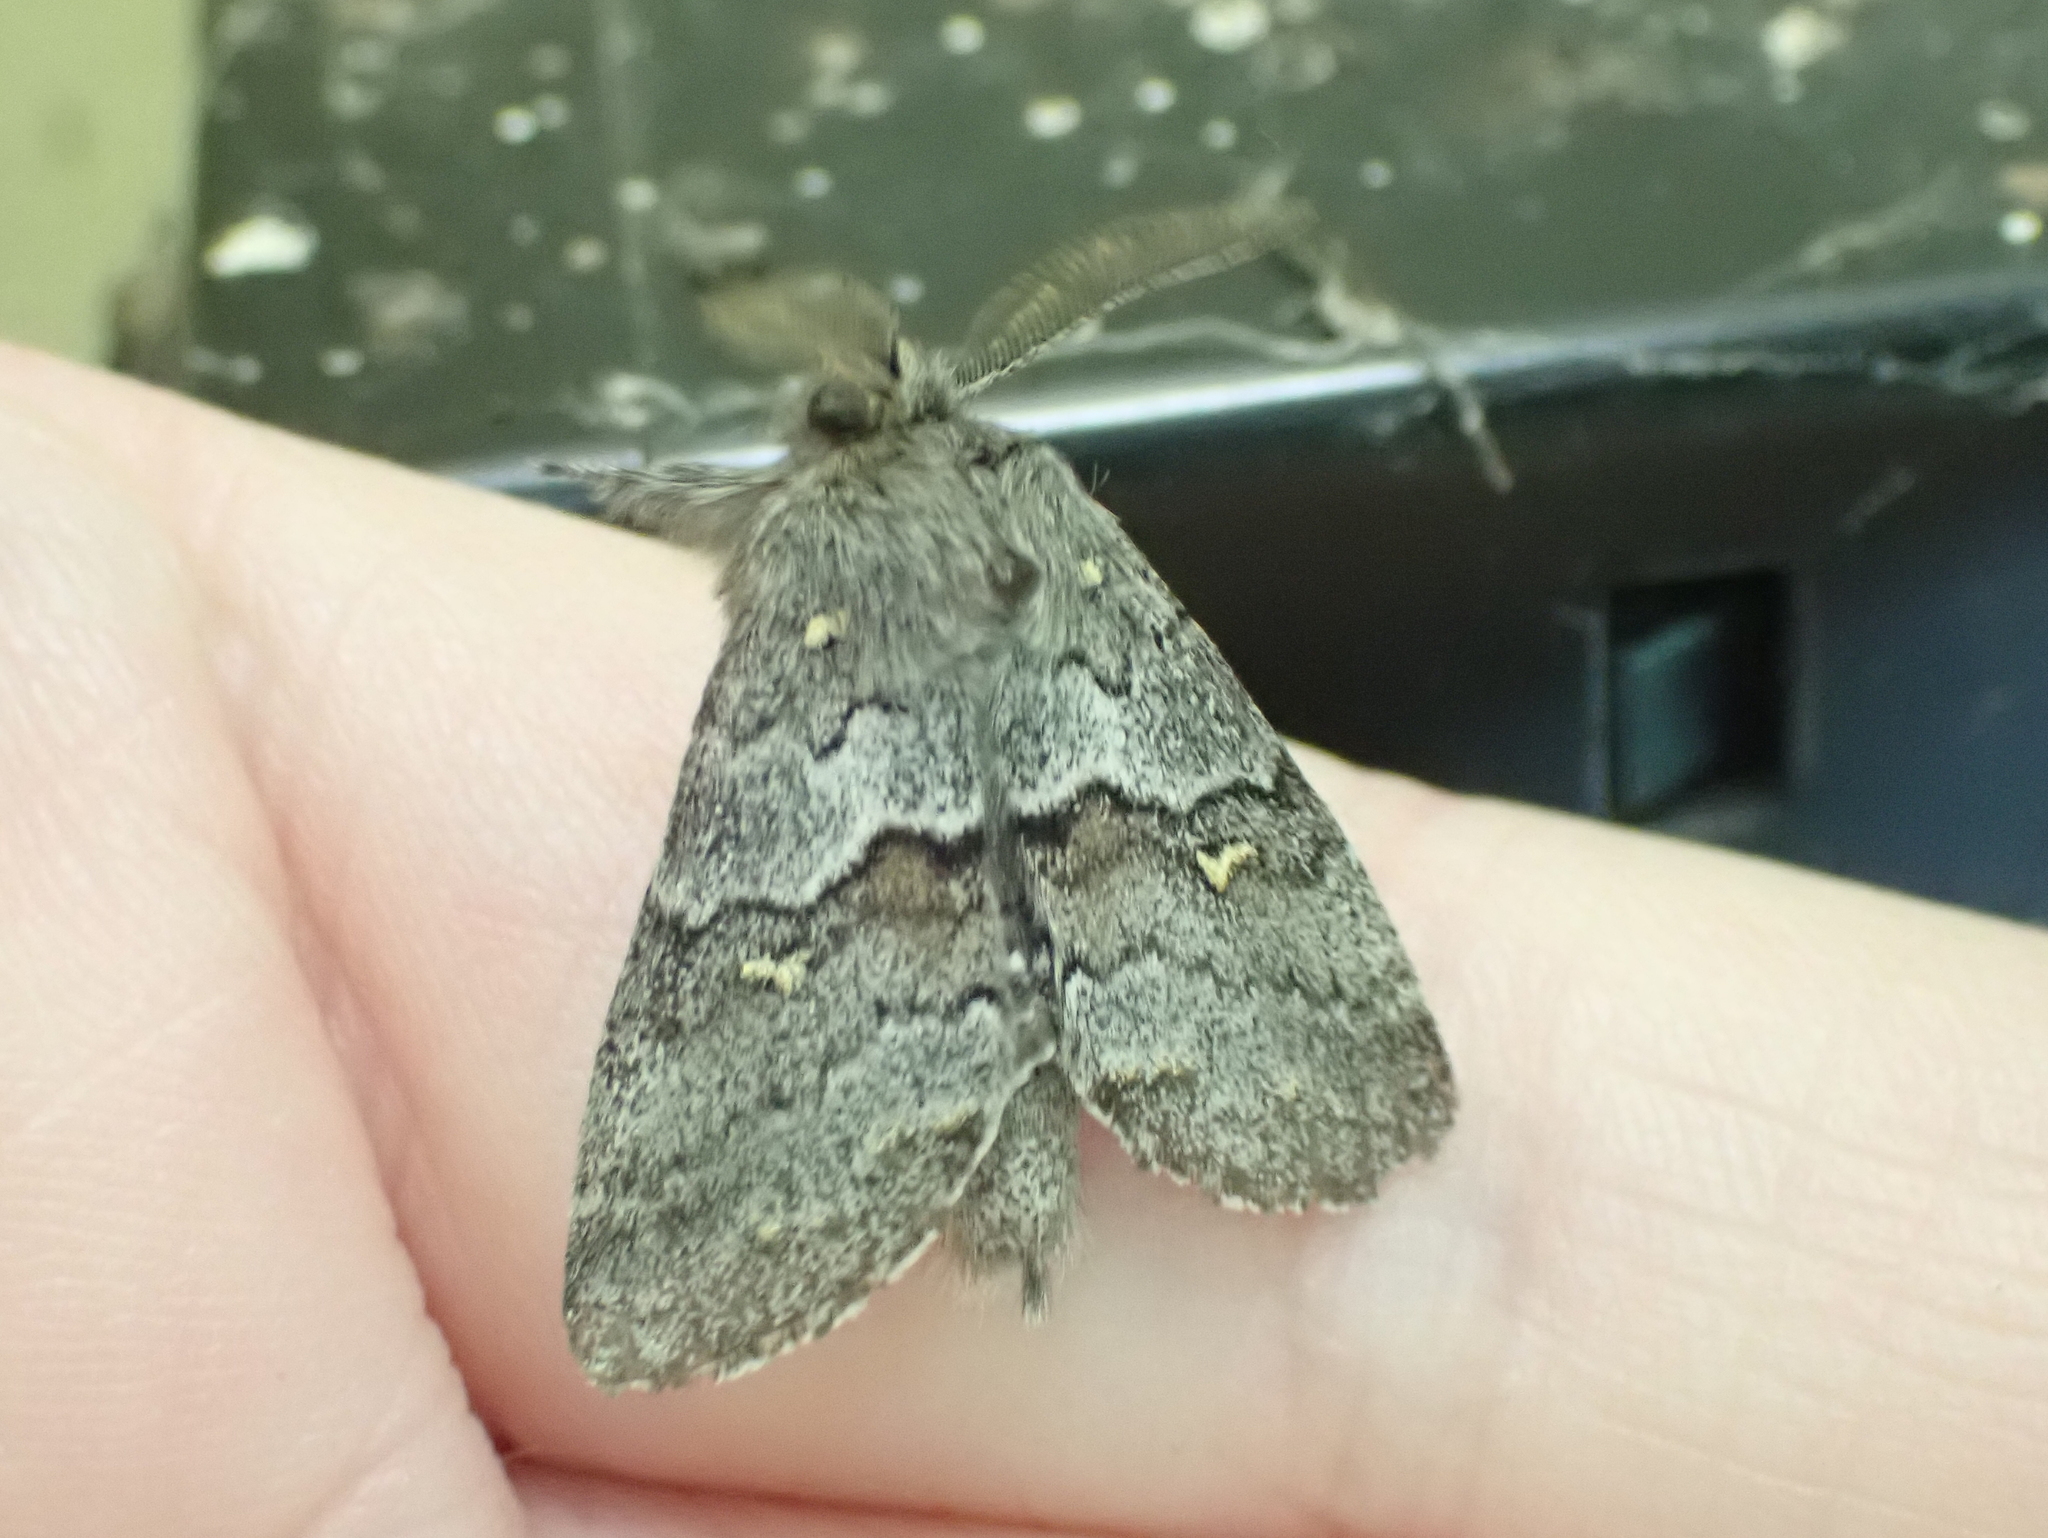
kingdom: Animalia
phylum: Arthropoda
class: Insecta
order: Lepidoptera
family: Notodontidae
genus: Gluphisia
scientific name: Gluphisia avimacula
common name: Four-spotted gluphisia moth
